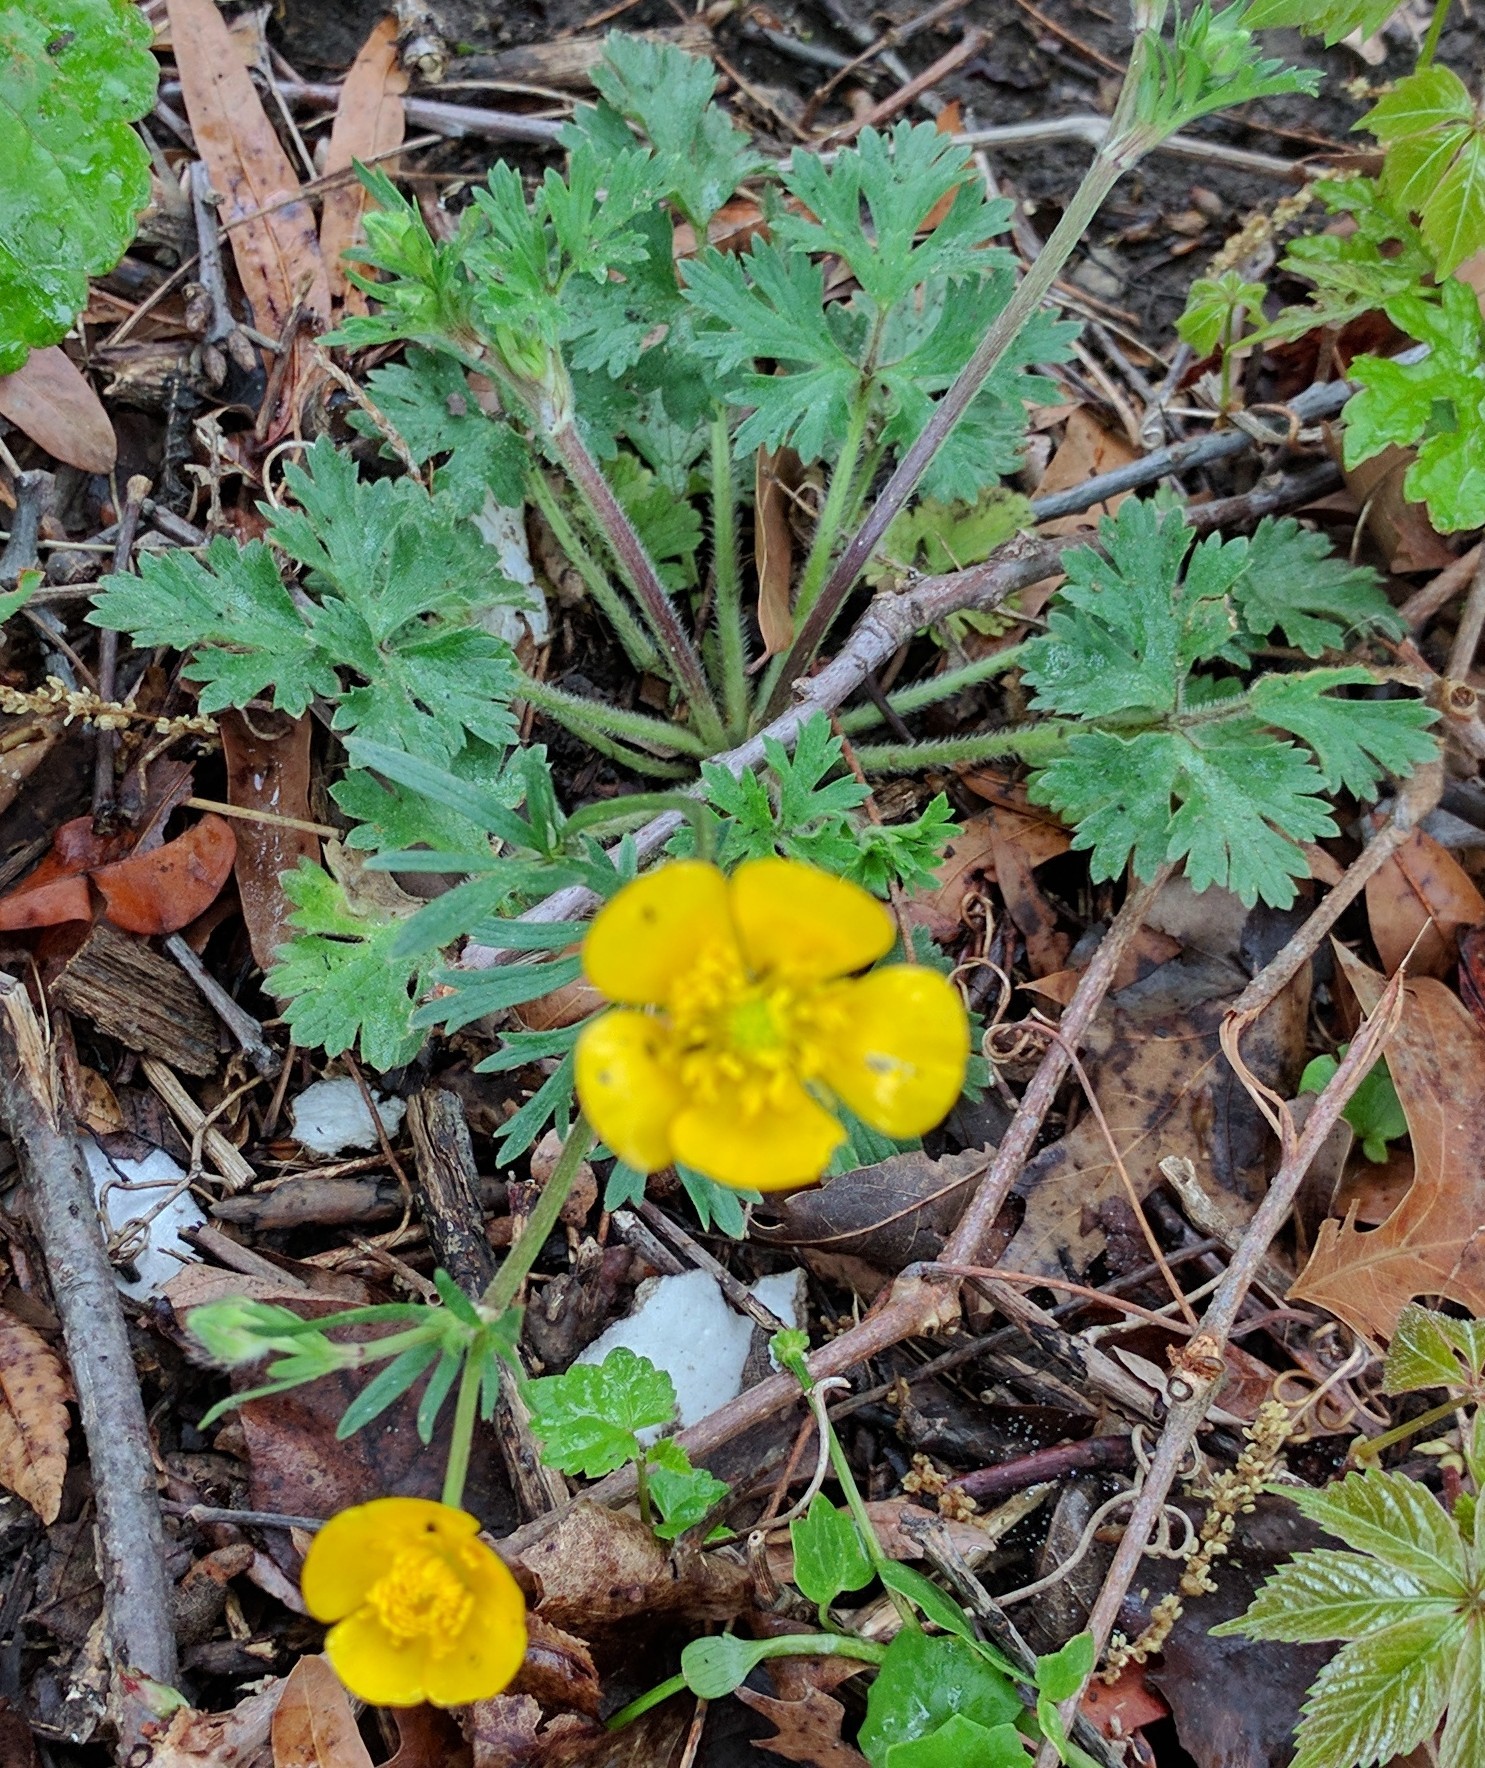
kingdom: Plantae
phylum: Tracheophyta
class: Magnoliopsida
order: Ranunculales
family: Ranunculaceae
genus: Ranunculus
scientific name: Ranunculus bulbosus
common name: Bulbous buttercup
